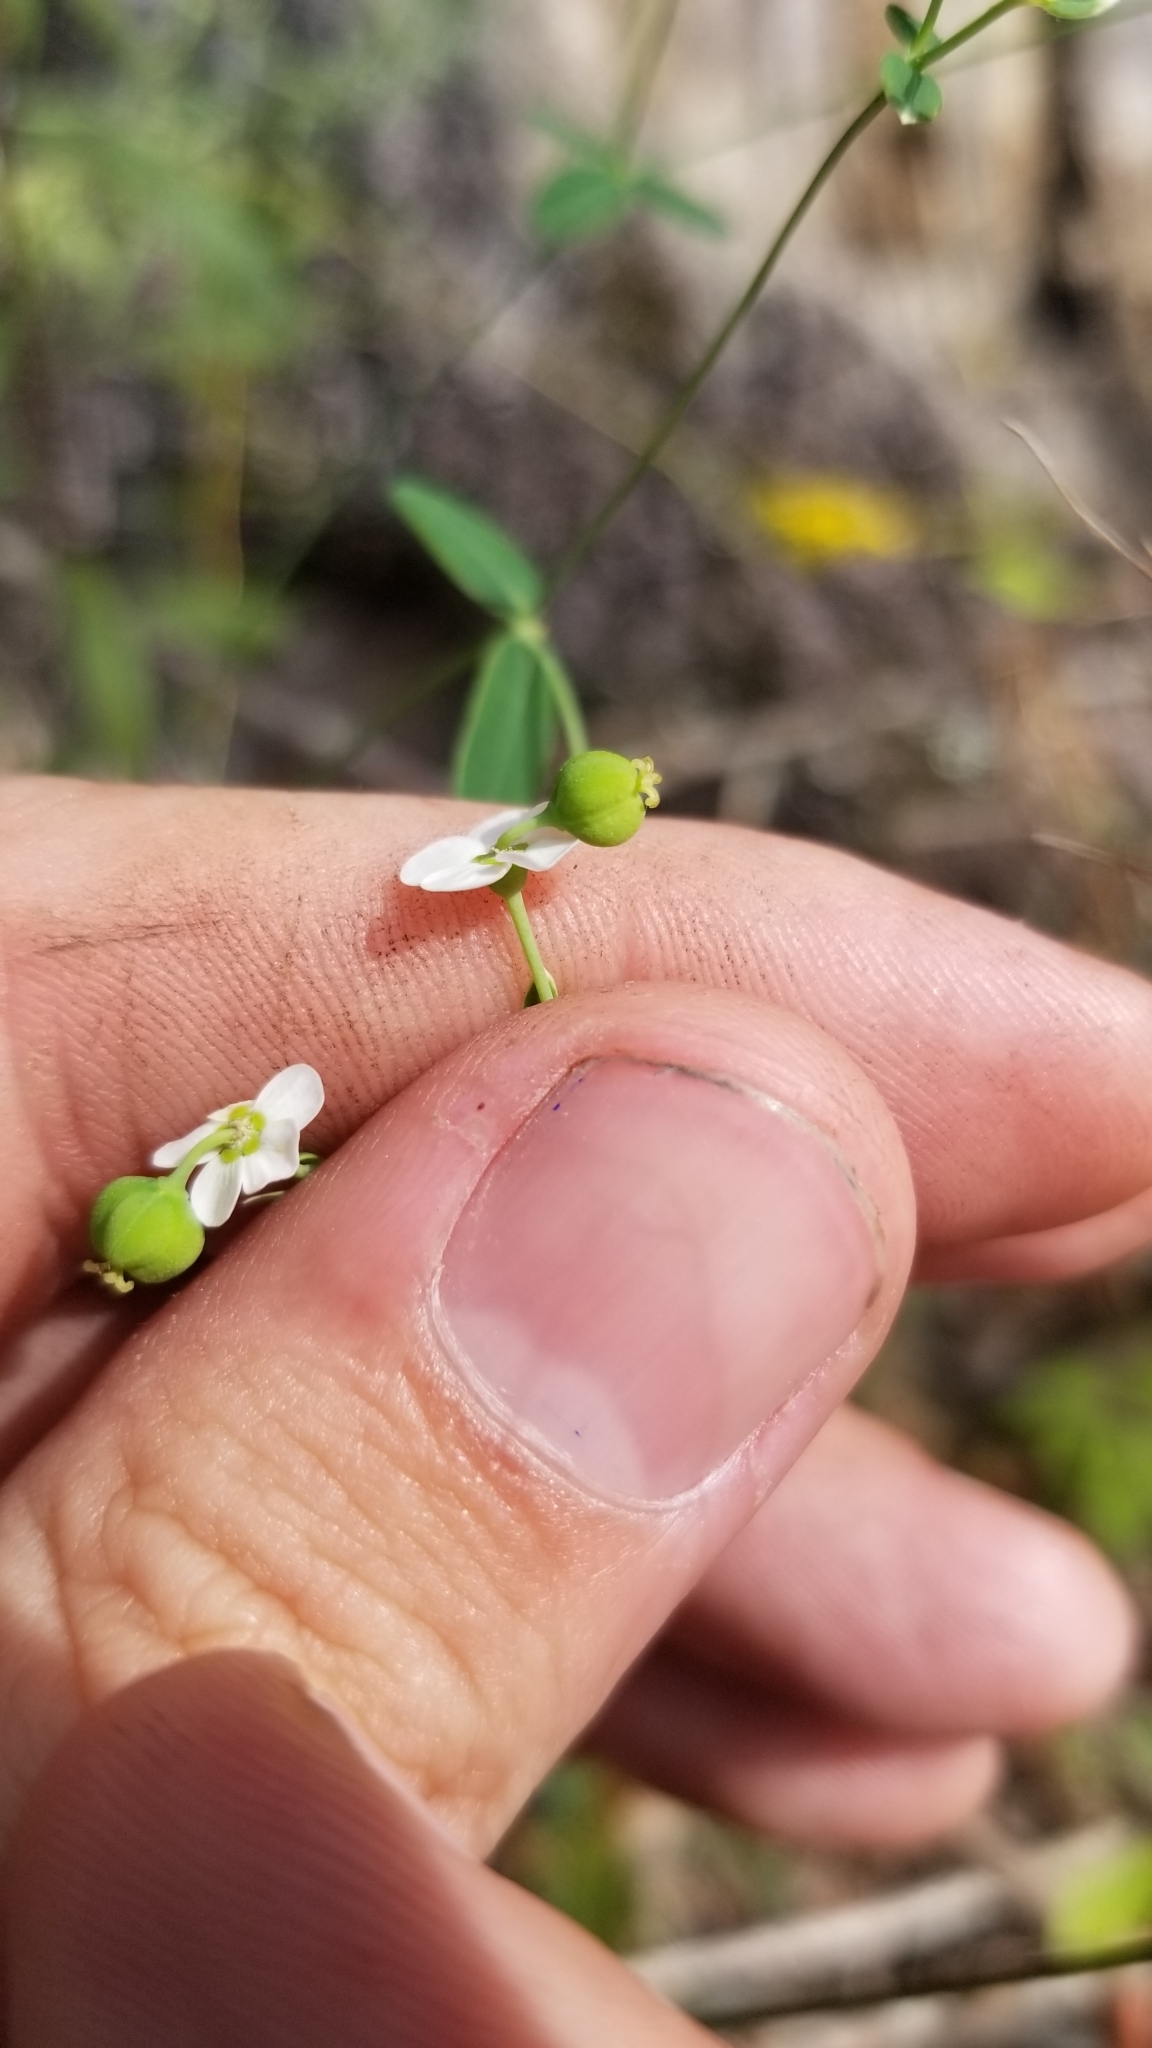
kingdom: Plantae
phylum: Tracheophyta
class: Magnoliopsida
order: Malpighiales
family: Euphorbiaceae
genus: Euphorbia
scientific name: Euphorbia pubentissima
